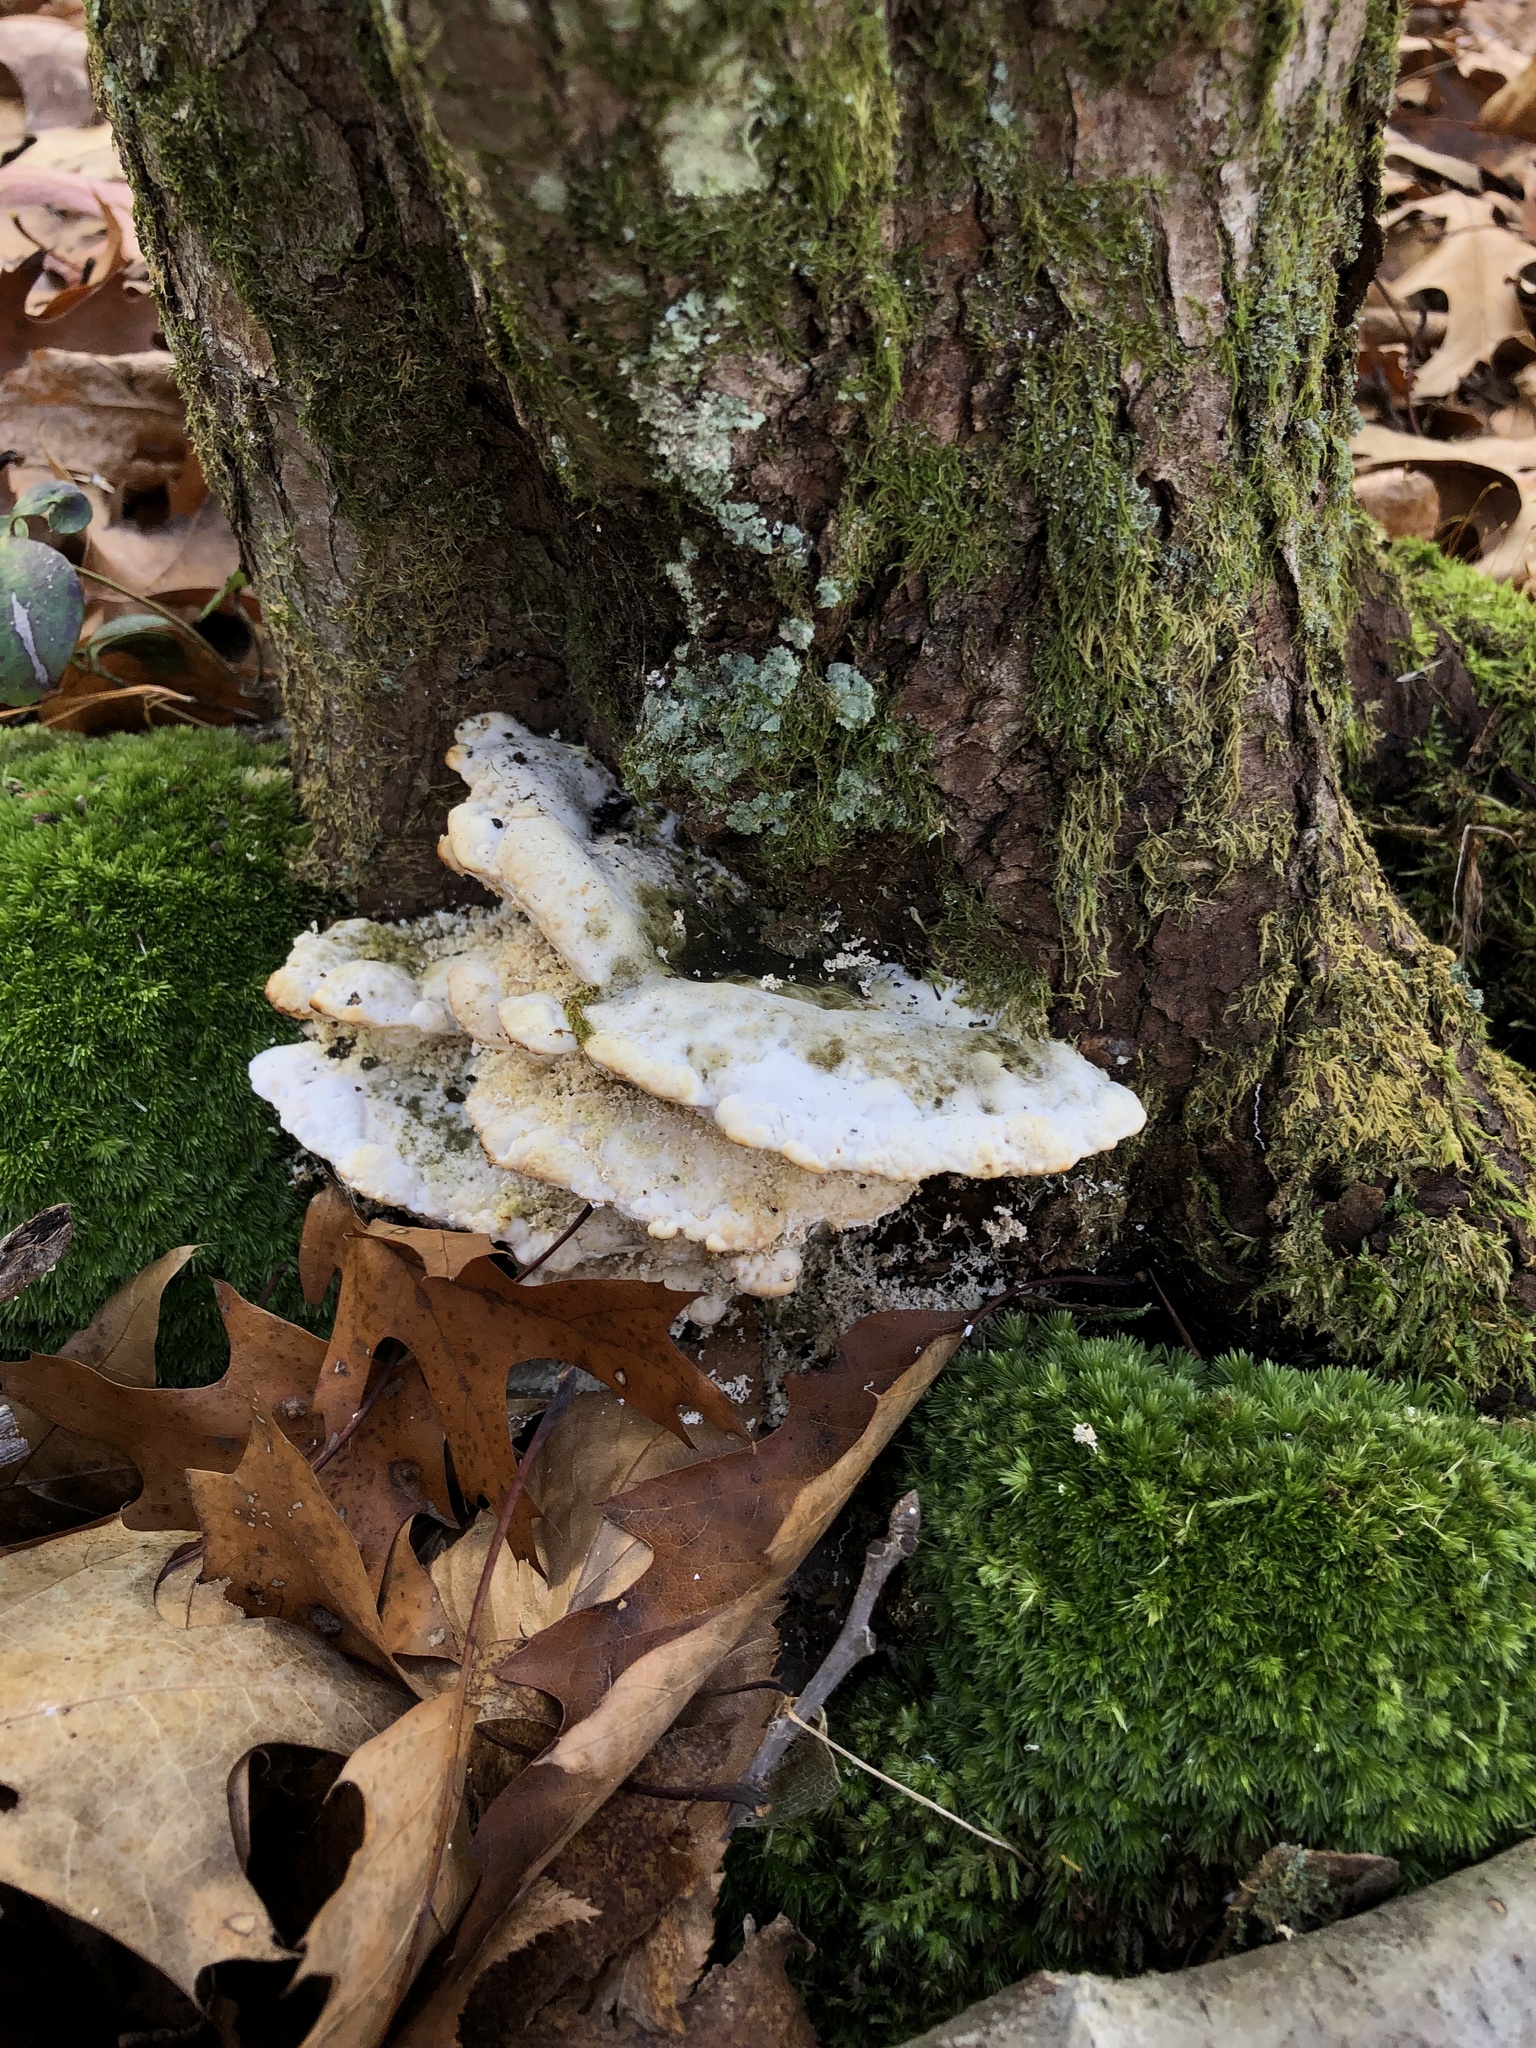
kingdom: Fungi
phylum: Basidiomycota
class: Agaricomycetes
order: Hymenochaetales
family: Oxyporaceae
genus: Oxyporus
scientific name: Oxyporus populinus
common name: Poplar bracket
